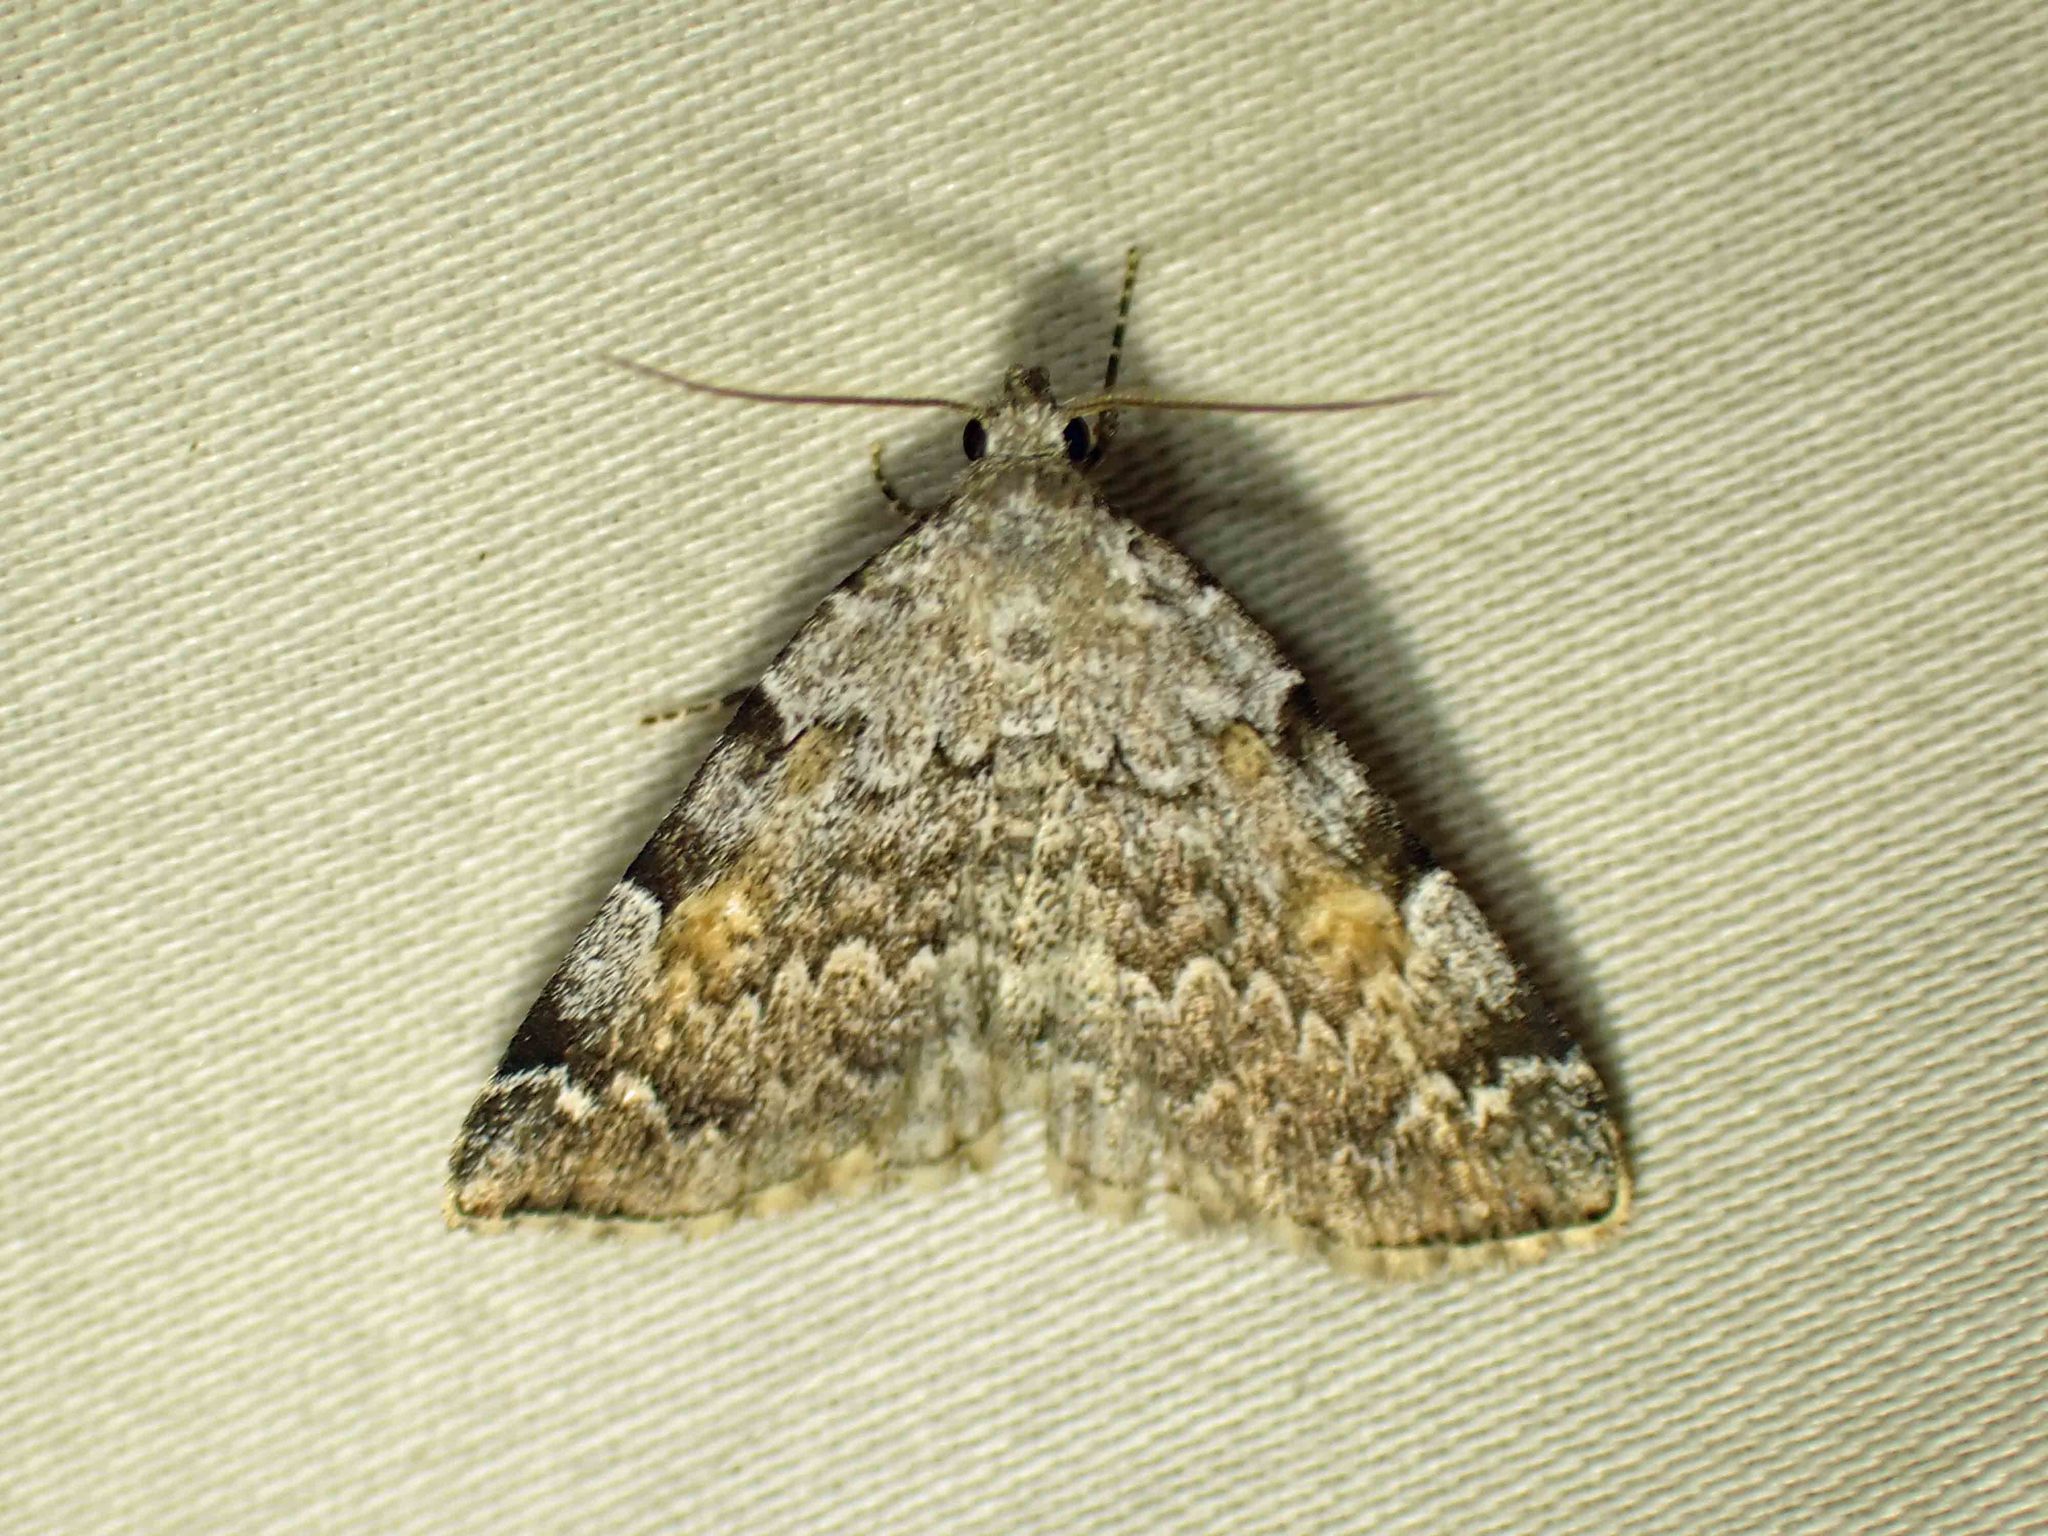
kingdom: Animalia
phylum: Arthropoda
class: Insecta
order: Lepidoptera
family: Erebidae
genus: Idia
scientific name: Idia americalis
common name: American idia moth
